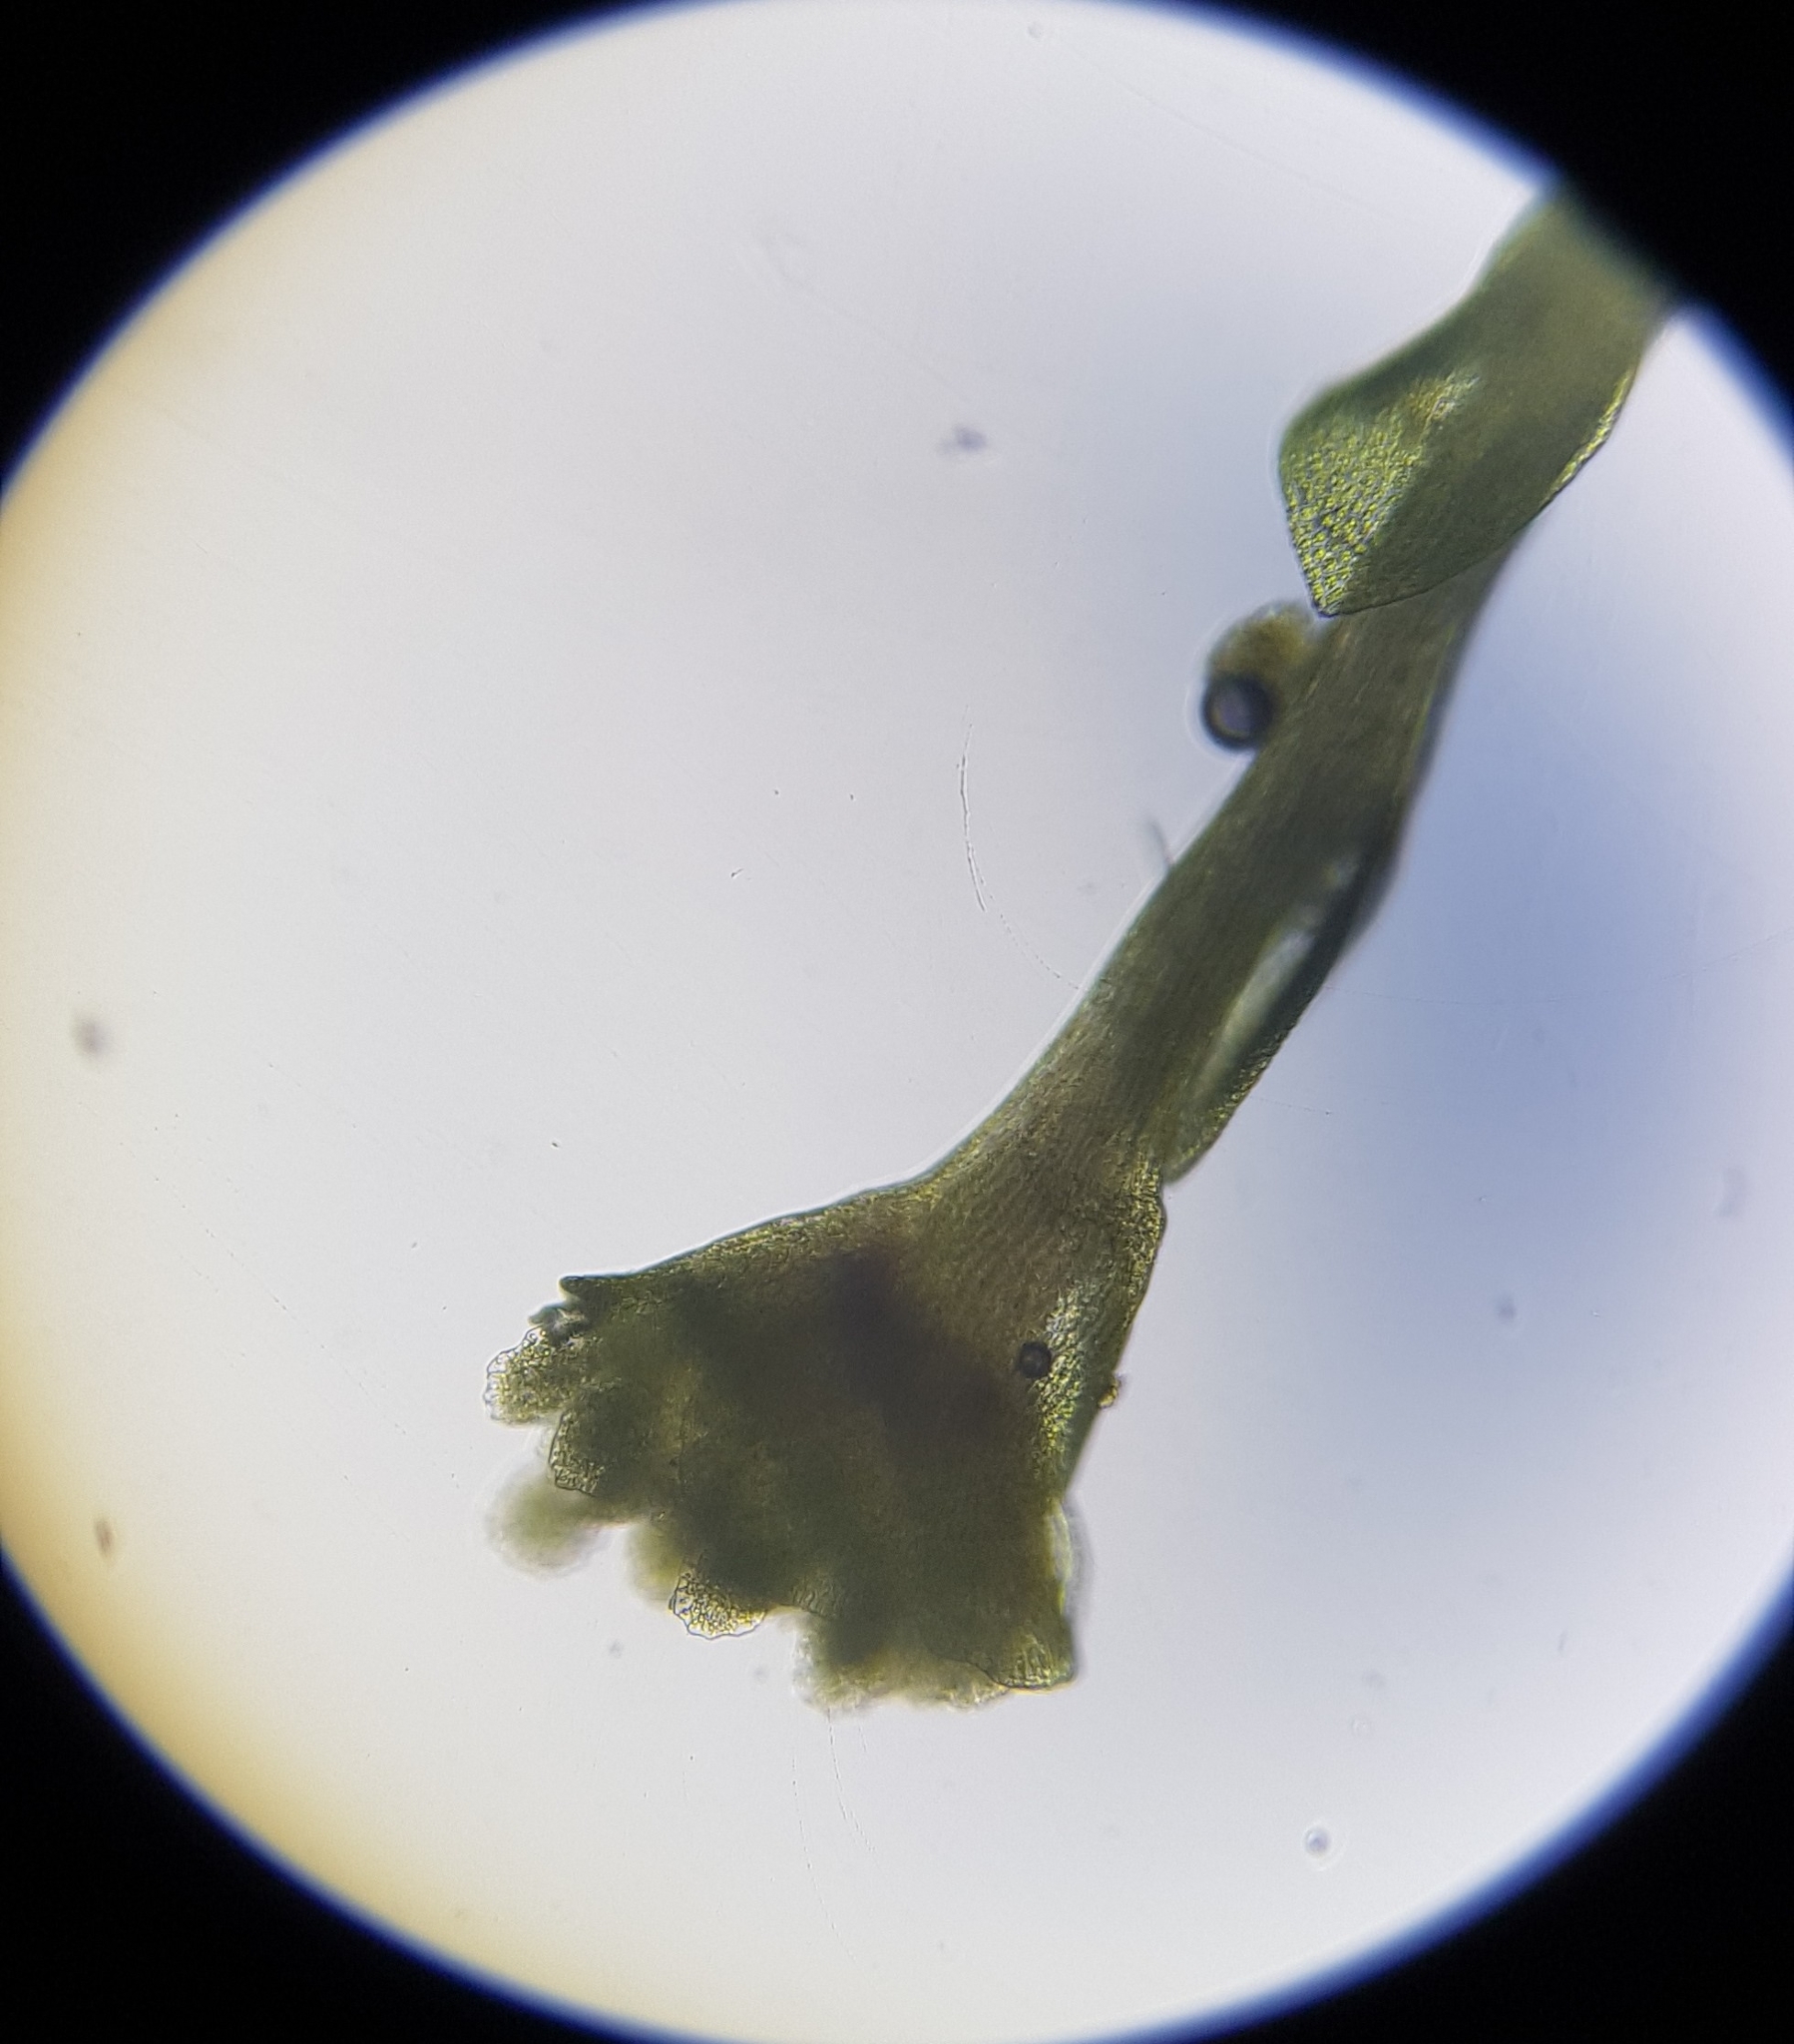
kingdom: Plantae
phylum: Bryophyta
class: Polytrichopsida
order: Tetraphidales
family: Tetraphidaceae
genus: Tetraphis
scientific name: Tetraphis pellucida
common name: Common four-toothed moss
